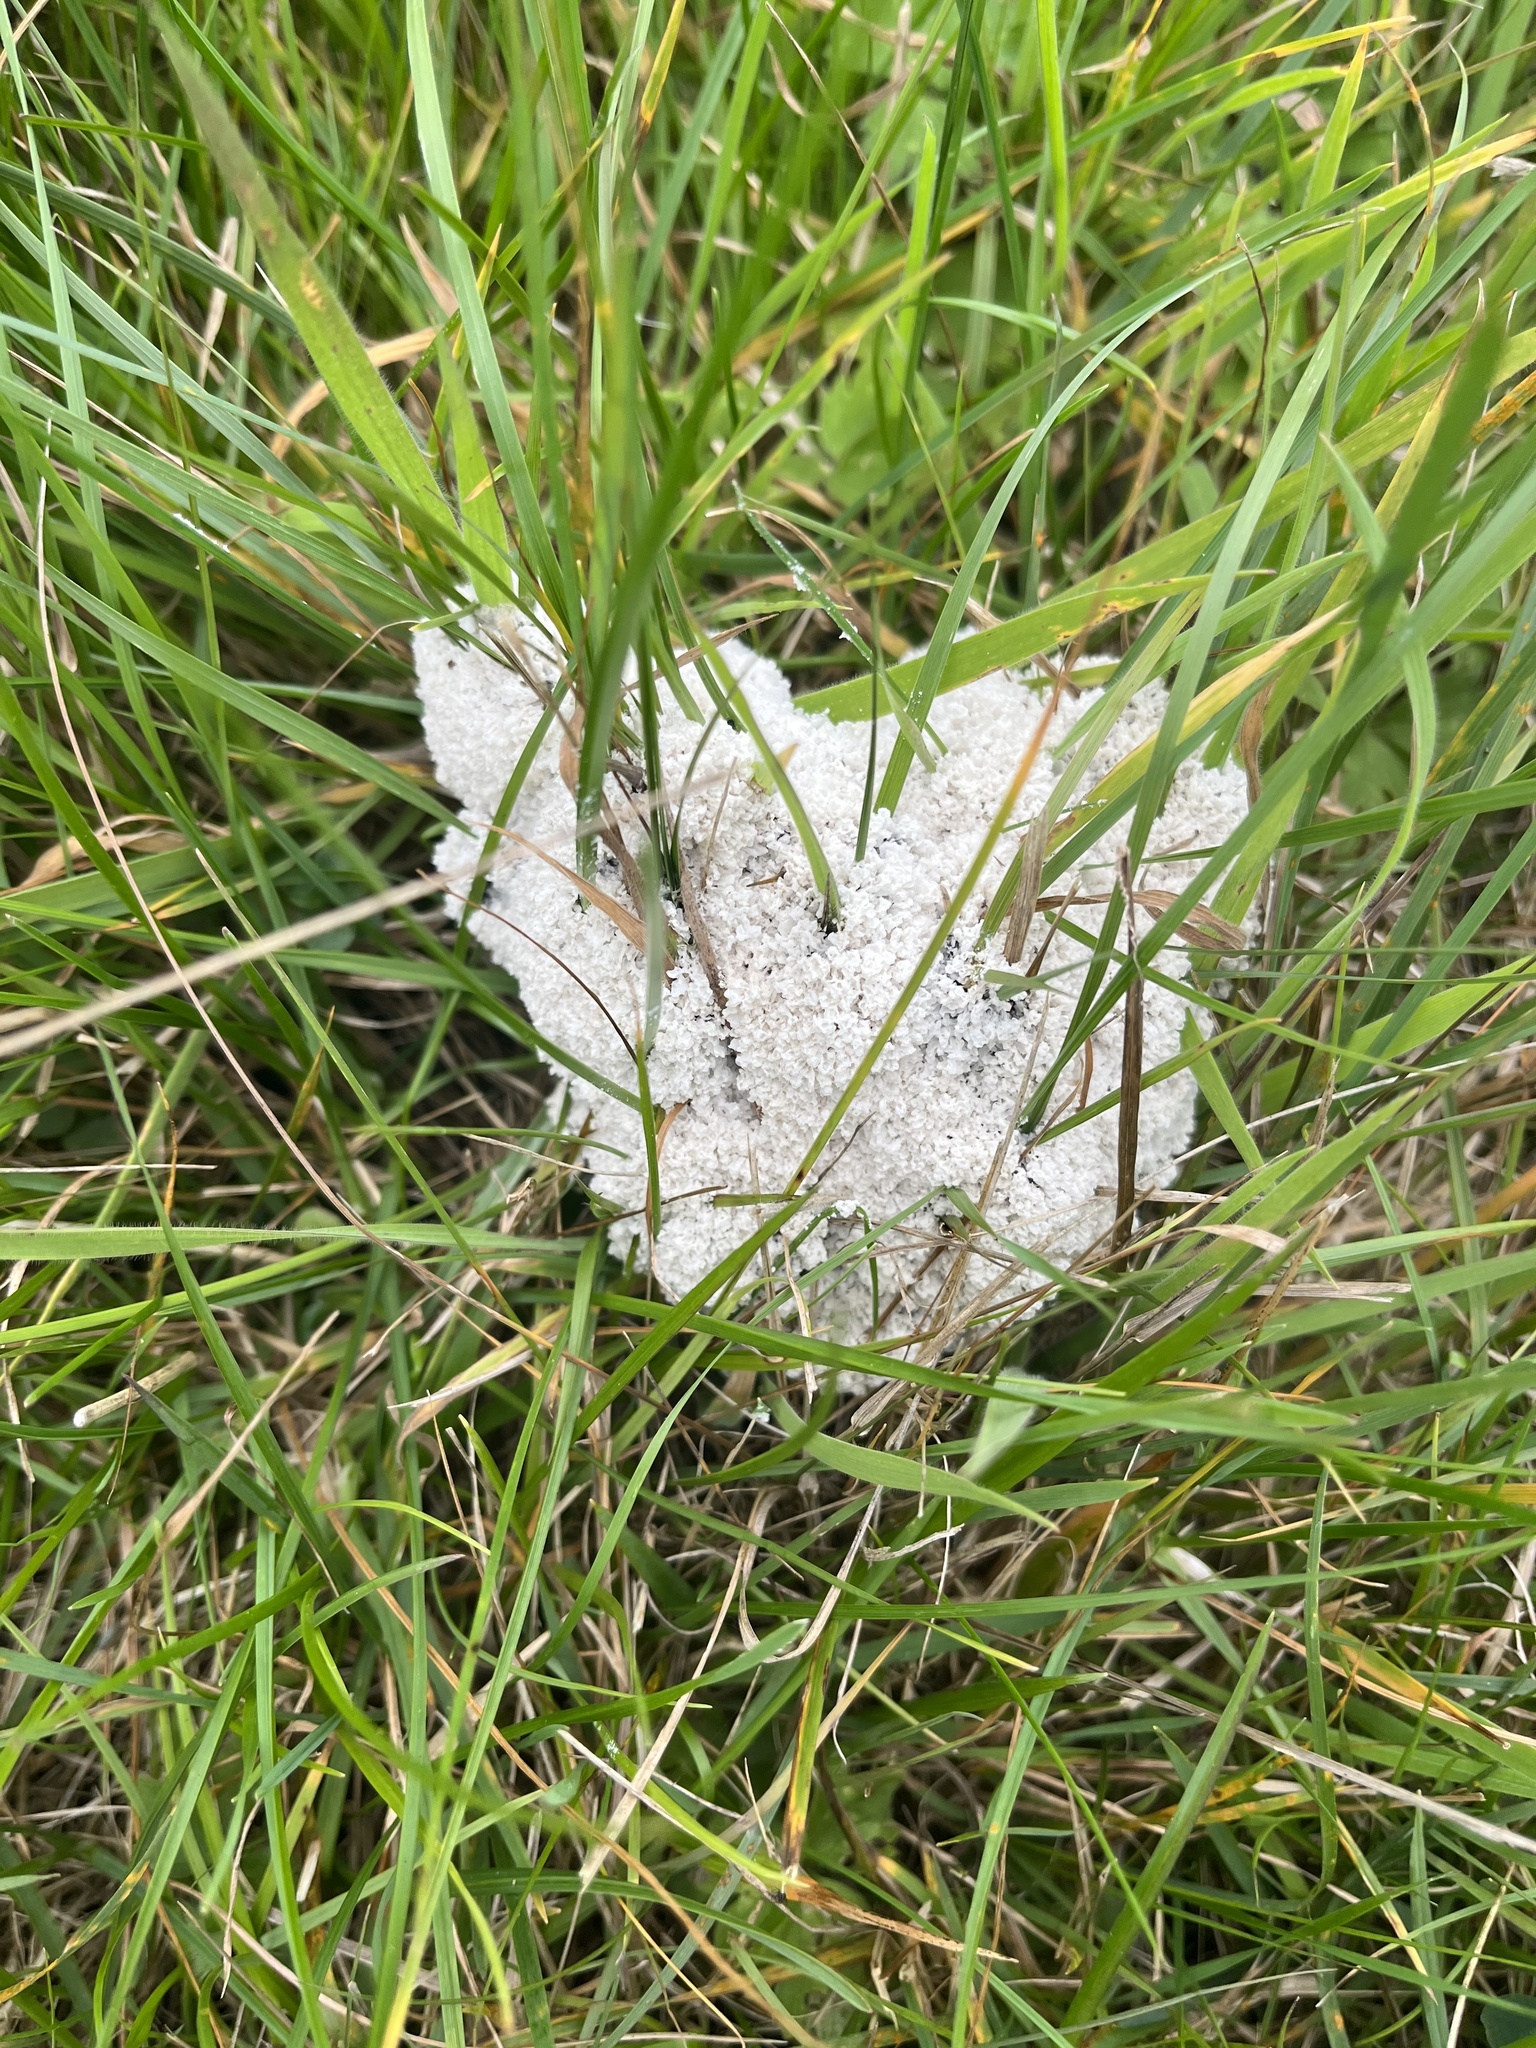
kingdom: Protozoa
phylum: Mycetozoa
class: Myxomycetes
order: Physarales
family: Physaraceae
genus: Didymium
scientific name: Didymium
